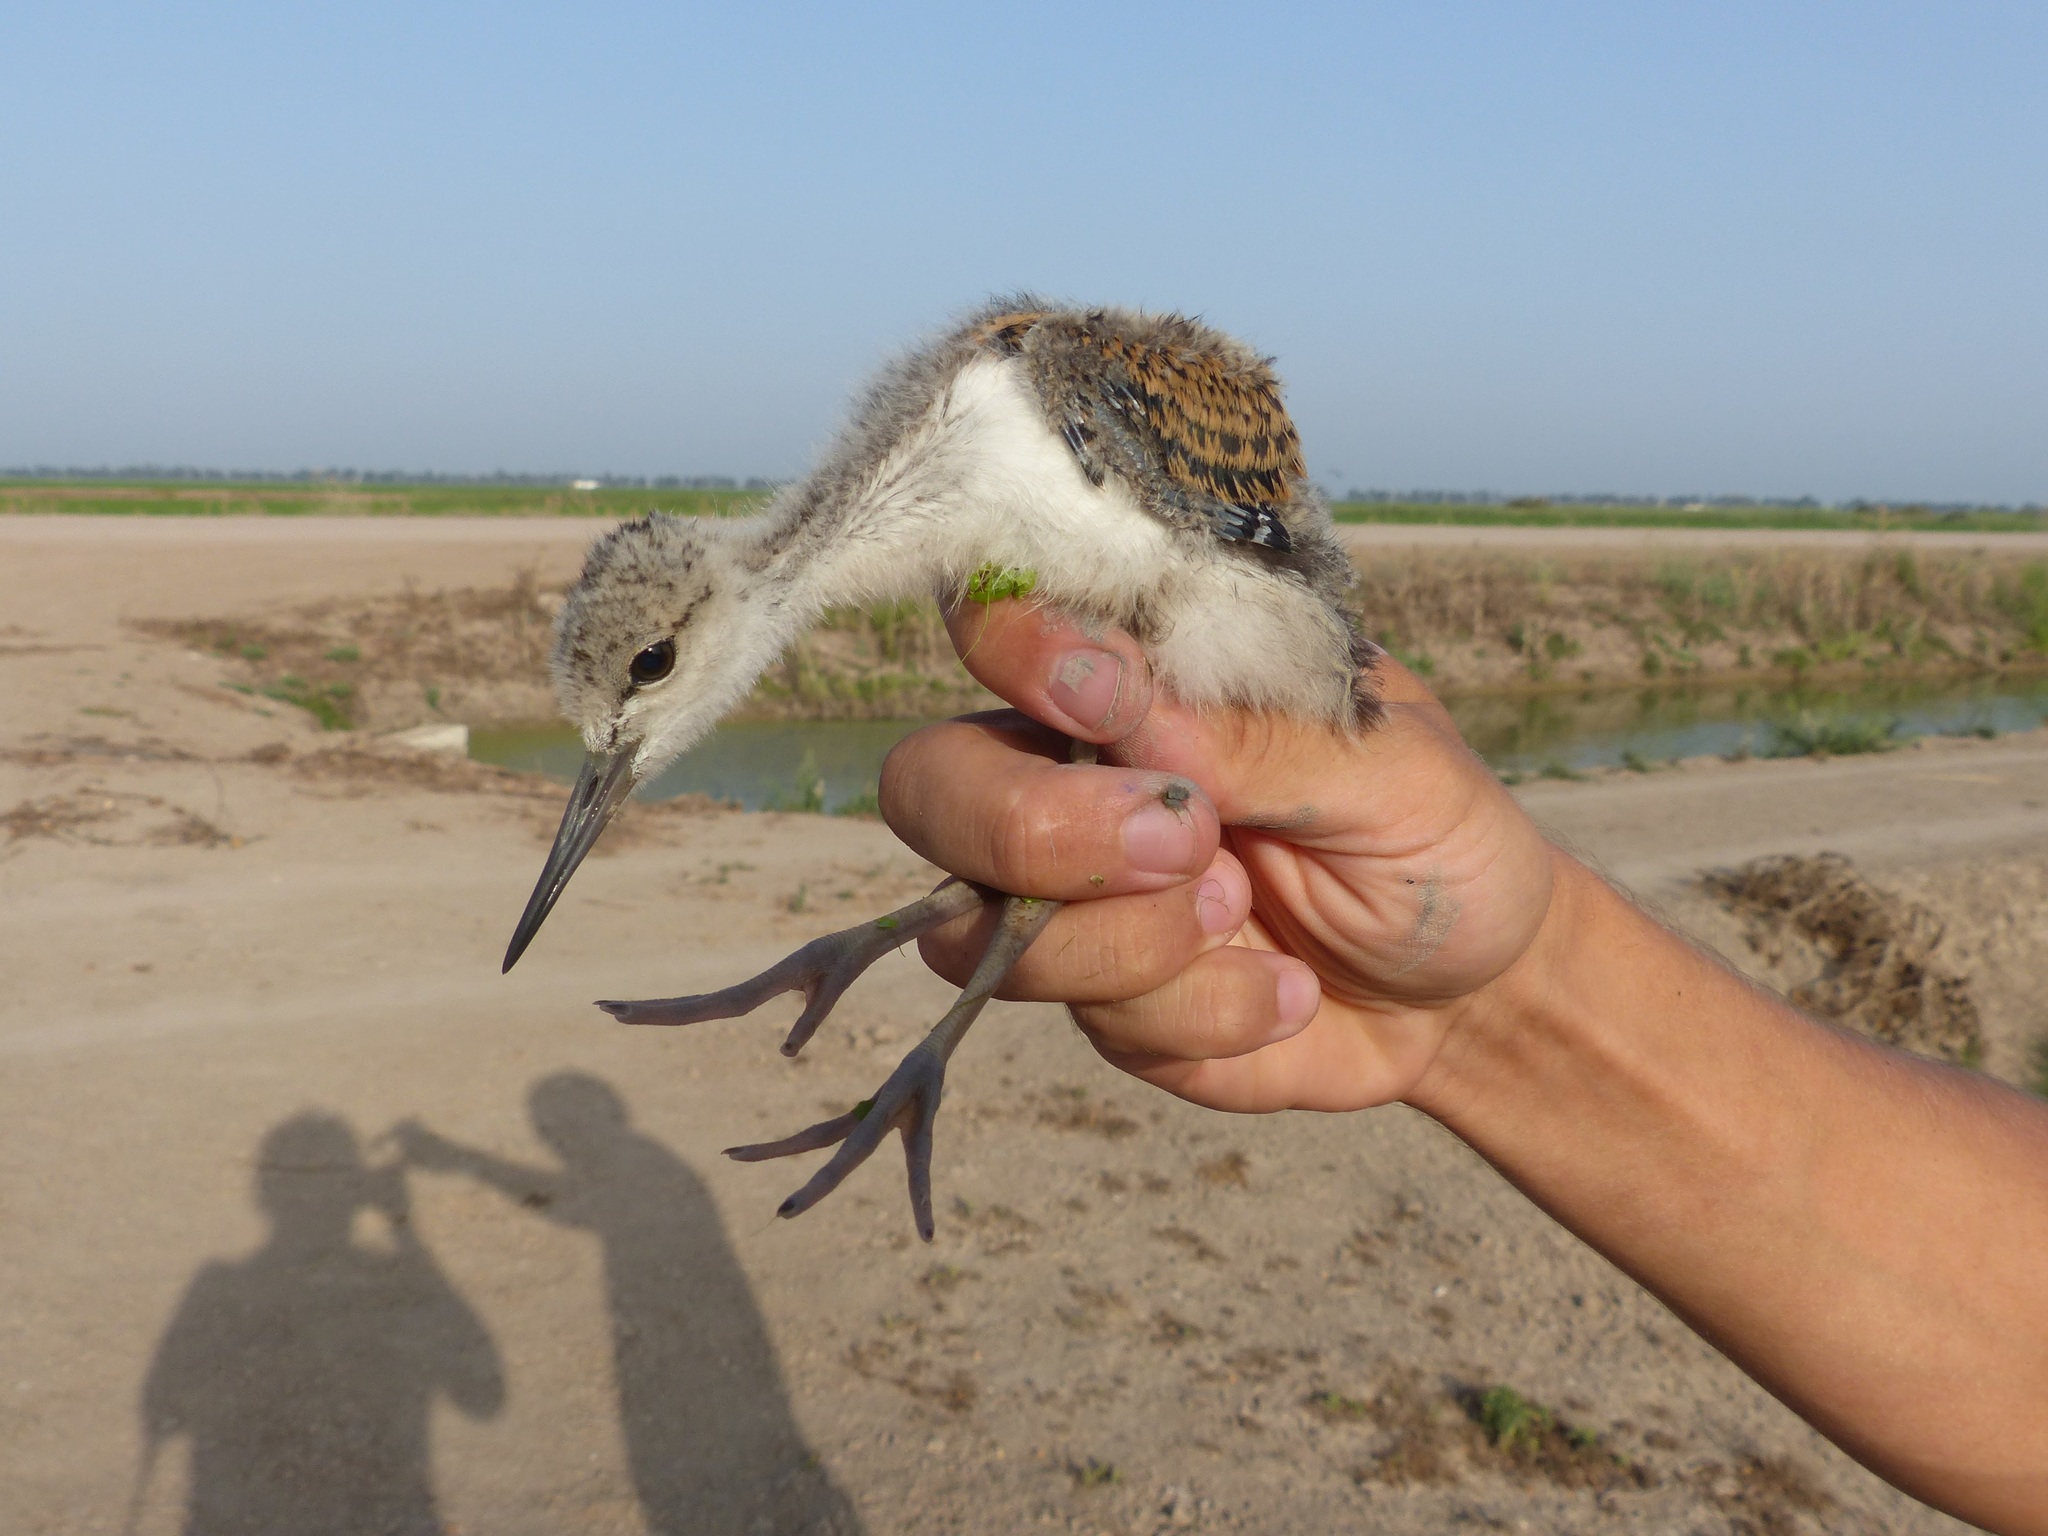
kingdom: Animalia
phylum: Chordata
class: Aves
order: Charadriiformes
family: Recurvirostridae
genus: Himantopus
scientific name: Himantopus himantopus
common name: Black-winged stilt
